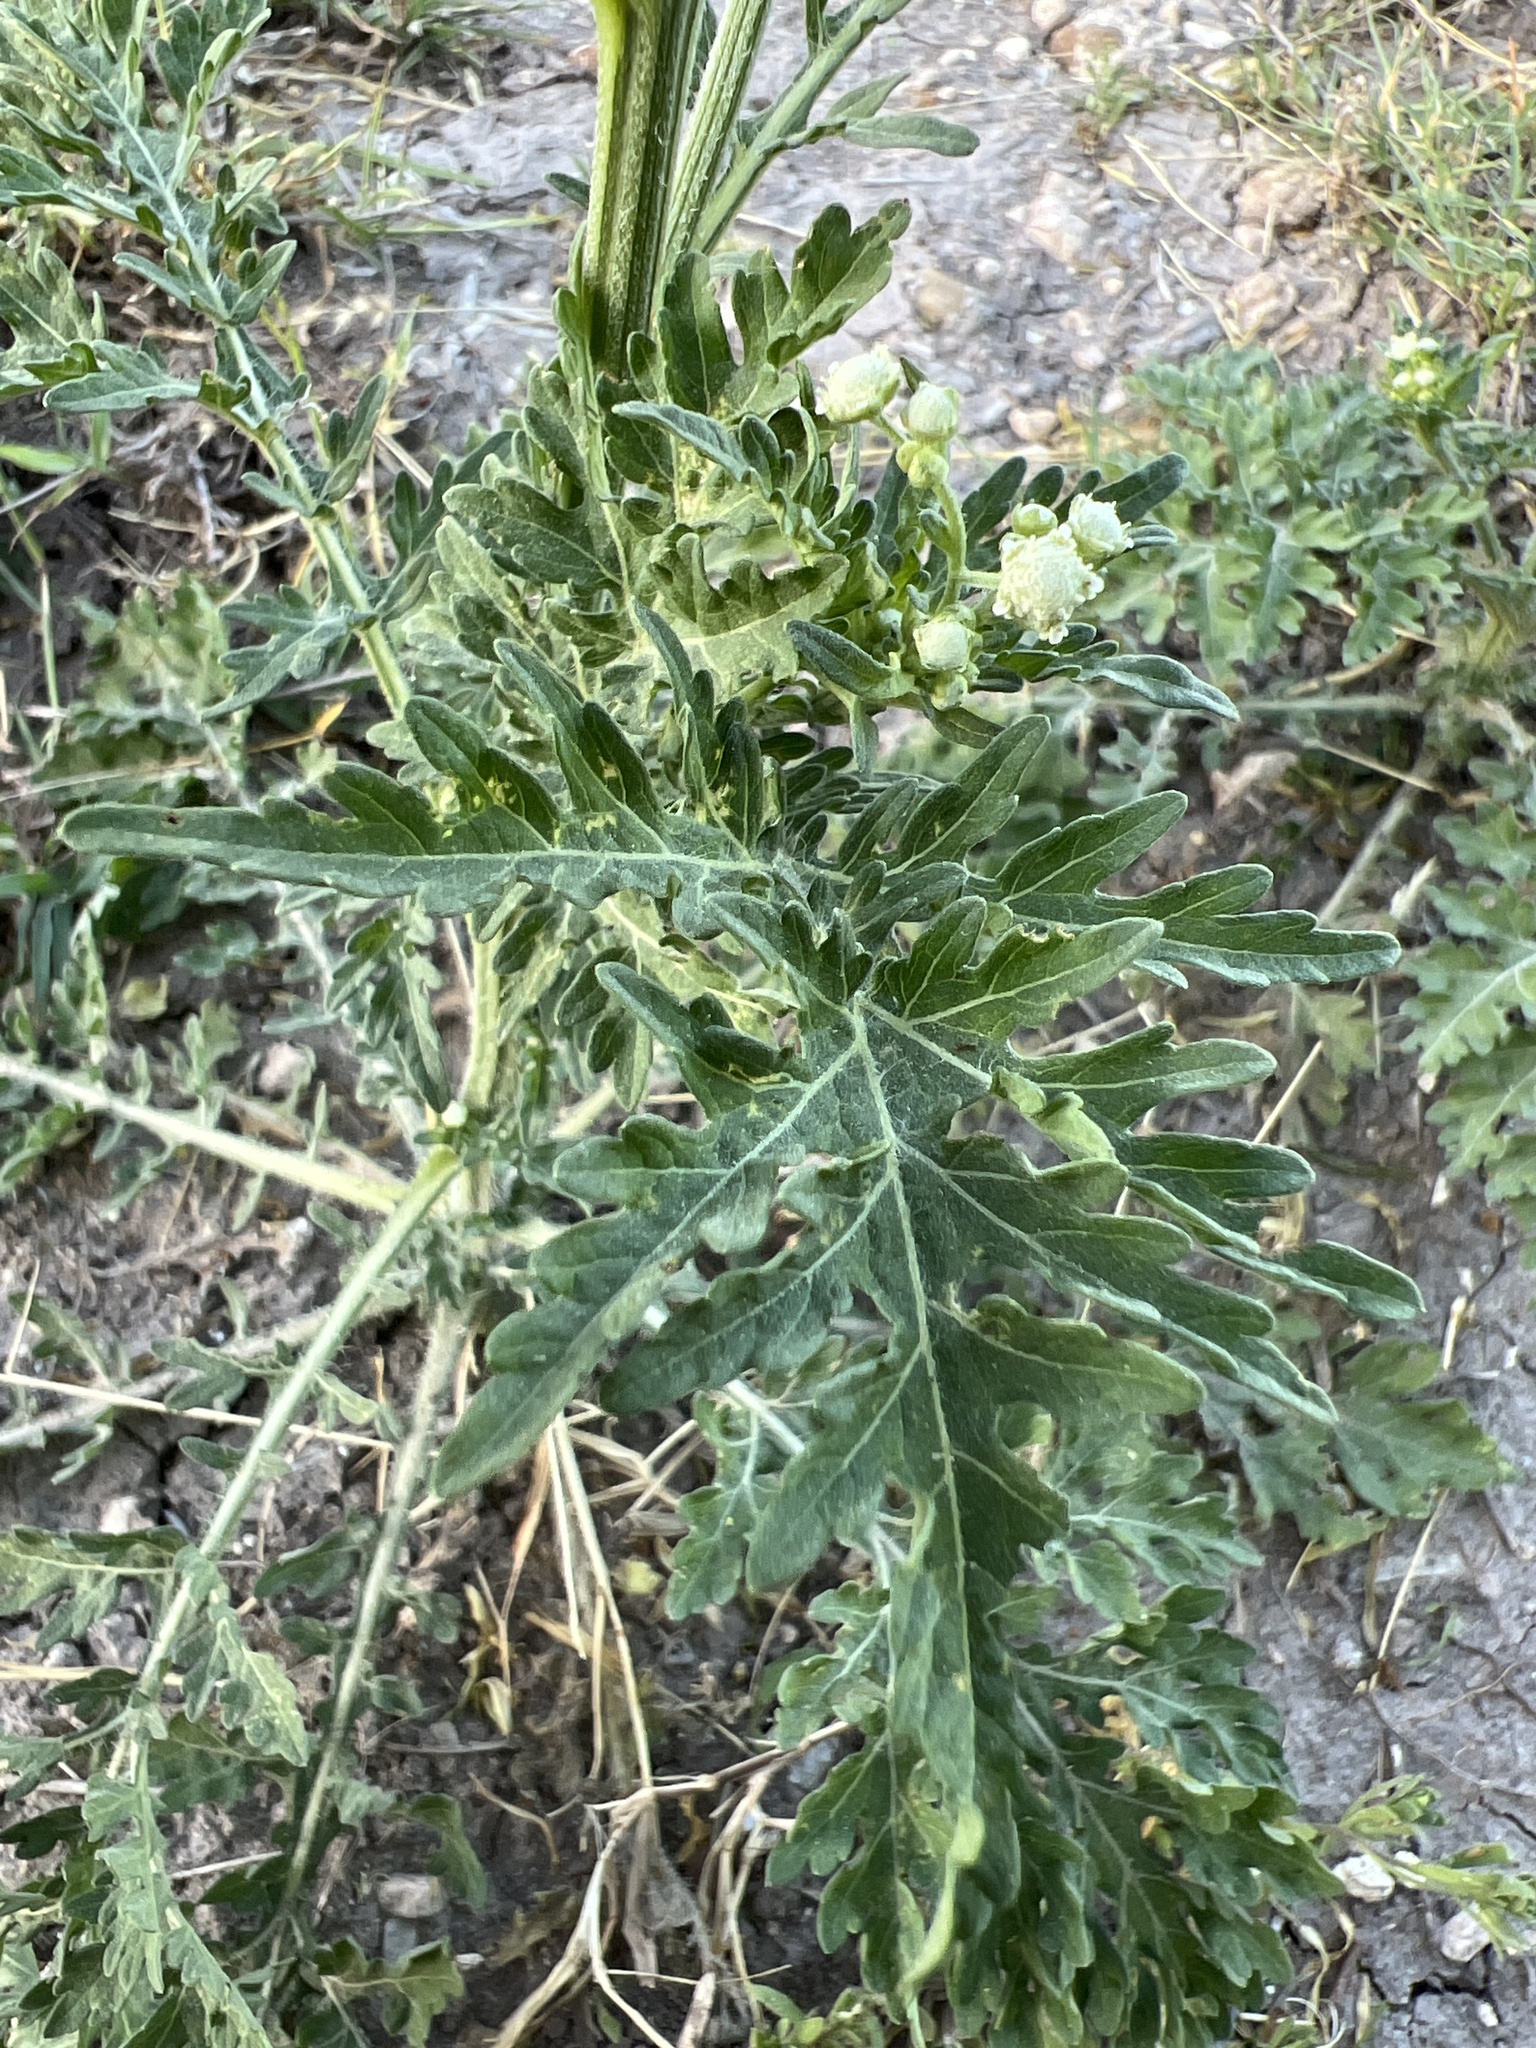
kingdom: Plantae
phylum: Tracheophyta
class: Magnoliopsida
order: Asterales
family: Asteraceae
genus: Parthenium
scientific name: Parthenium hysterophorus
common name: Santa maria feverfew
